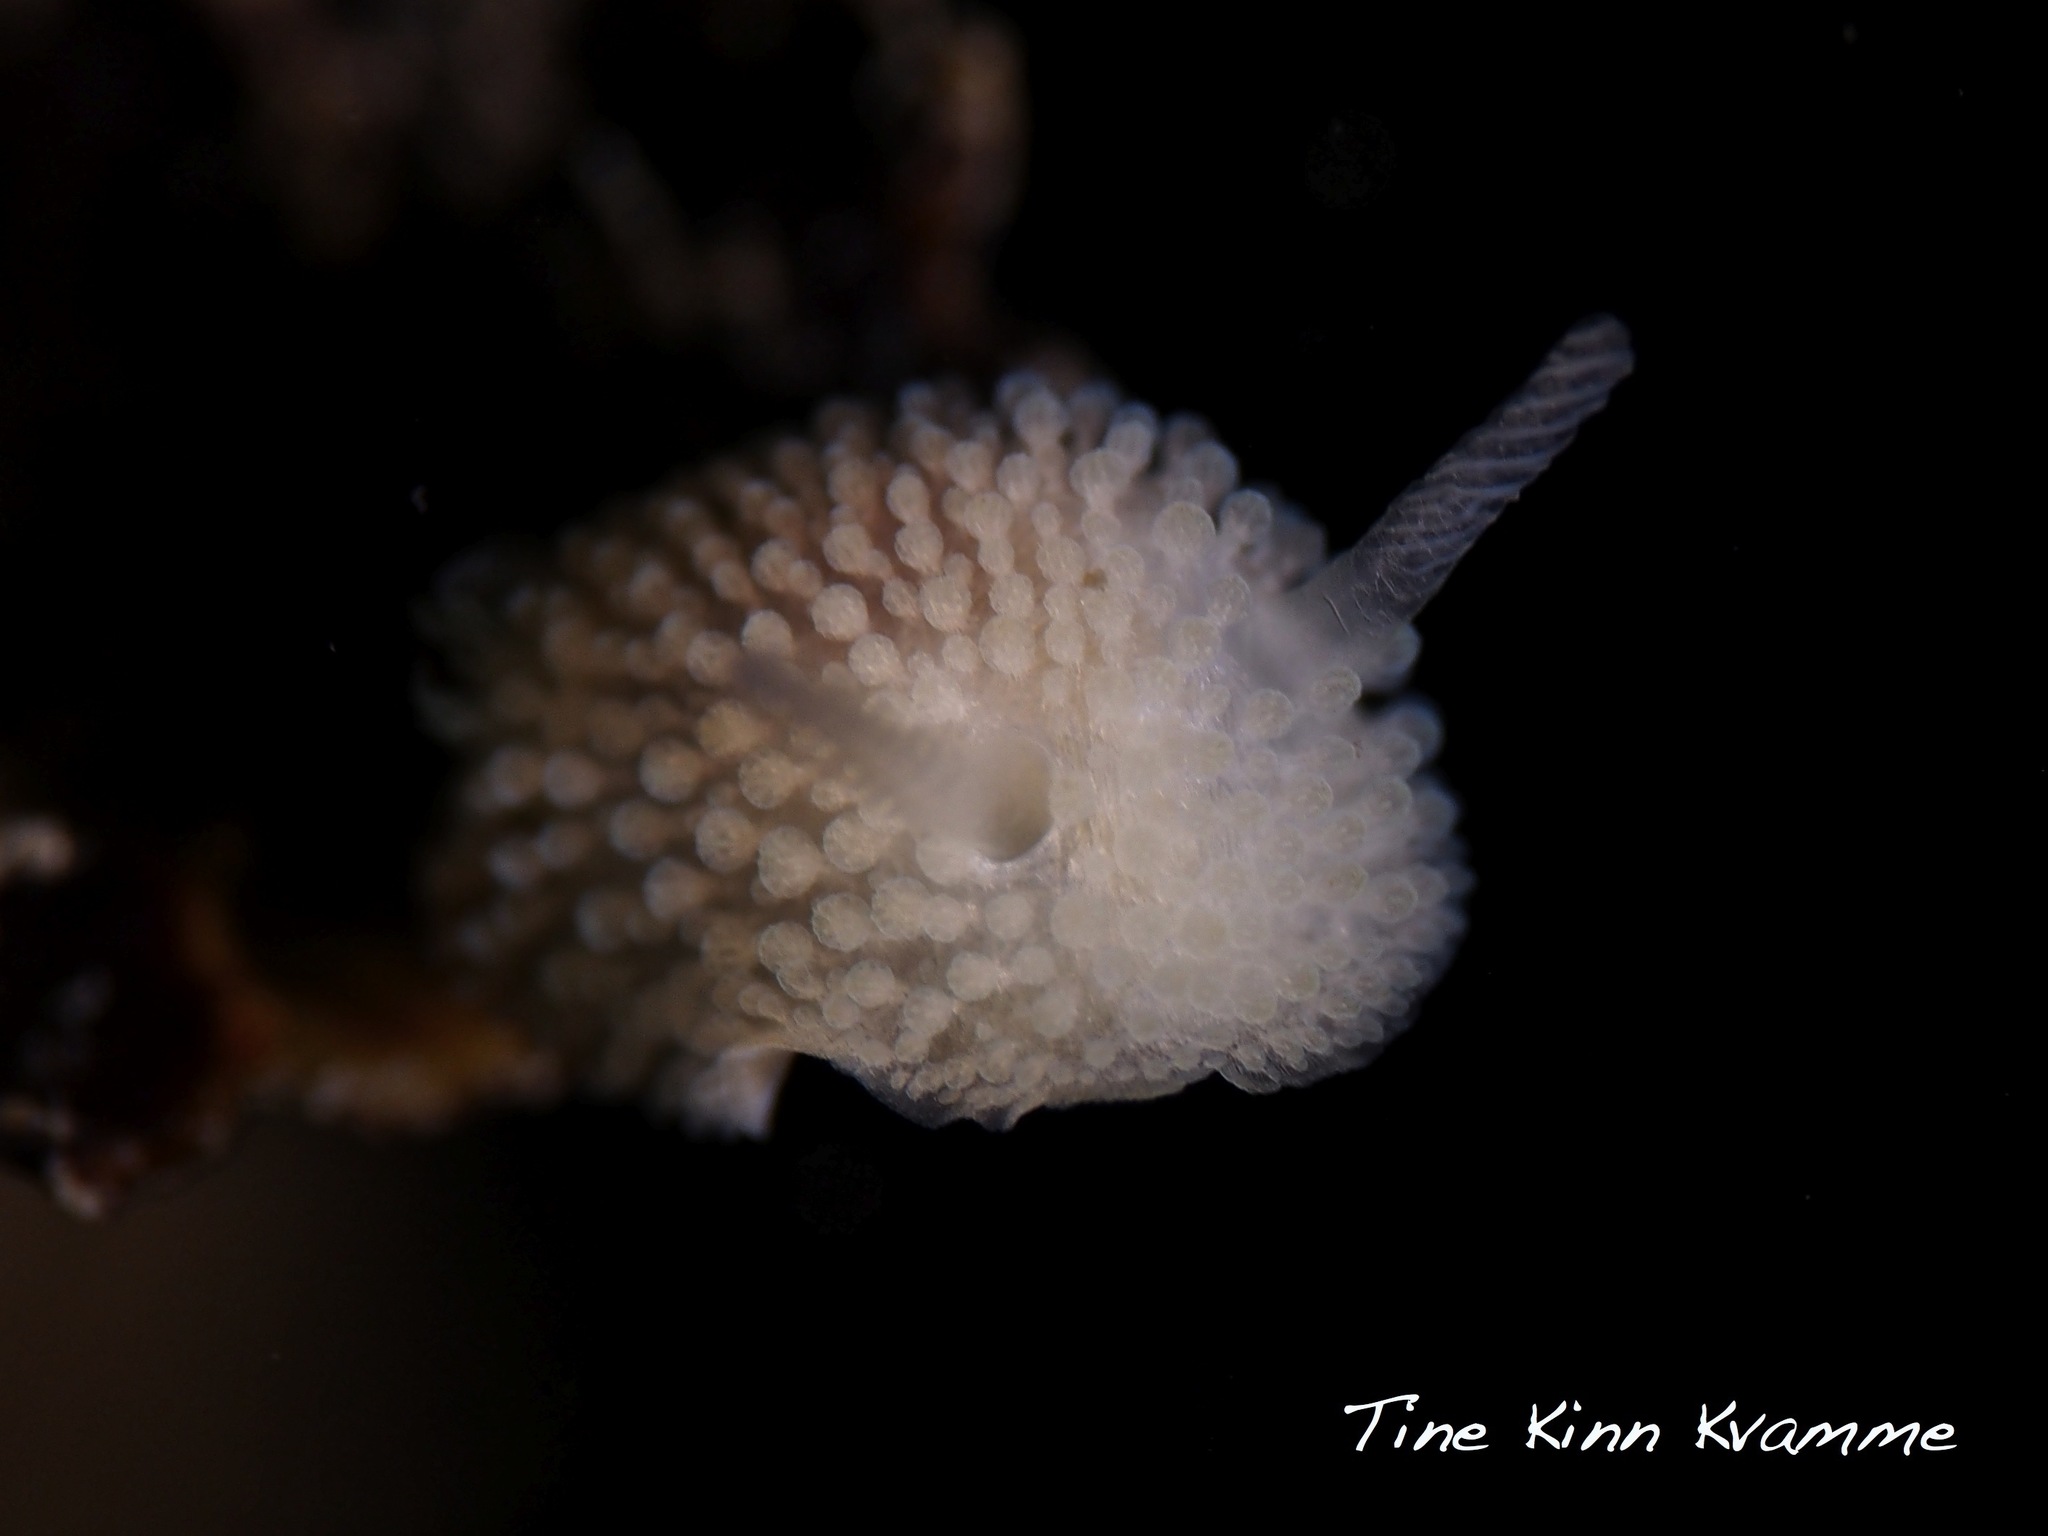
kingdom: Animalia
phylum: Mollusca
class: Gastropoda
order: Nudibranchia
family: Onchidorididae
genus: Acanthodoris
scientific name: Acanthodoris pilosa
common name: Hairy spiny doris
